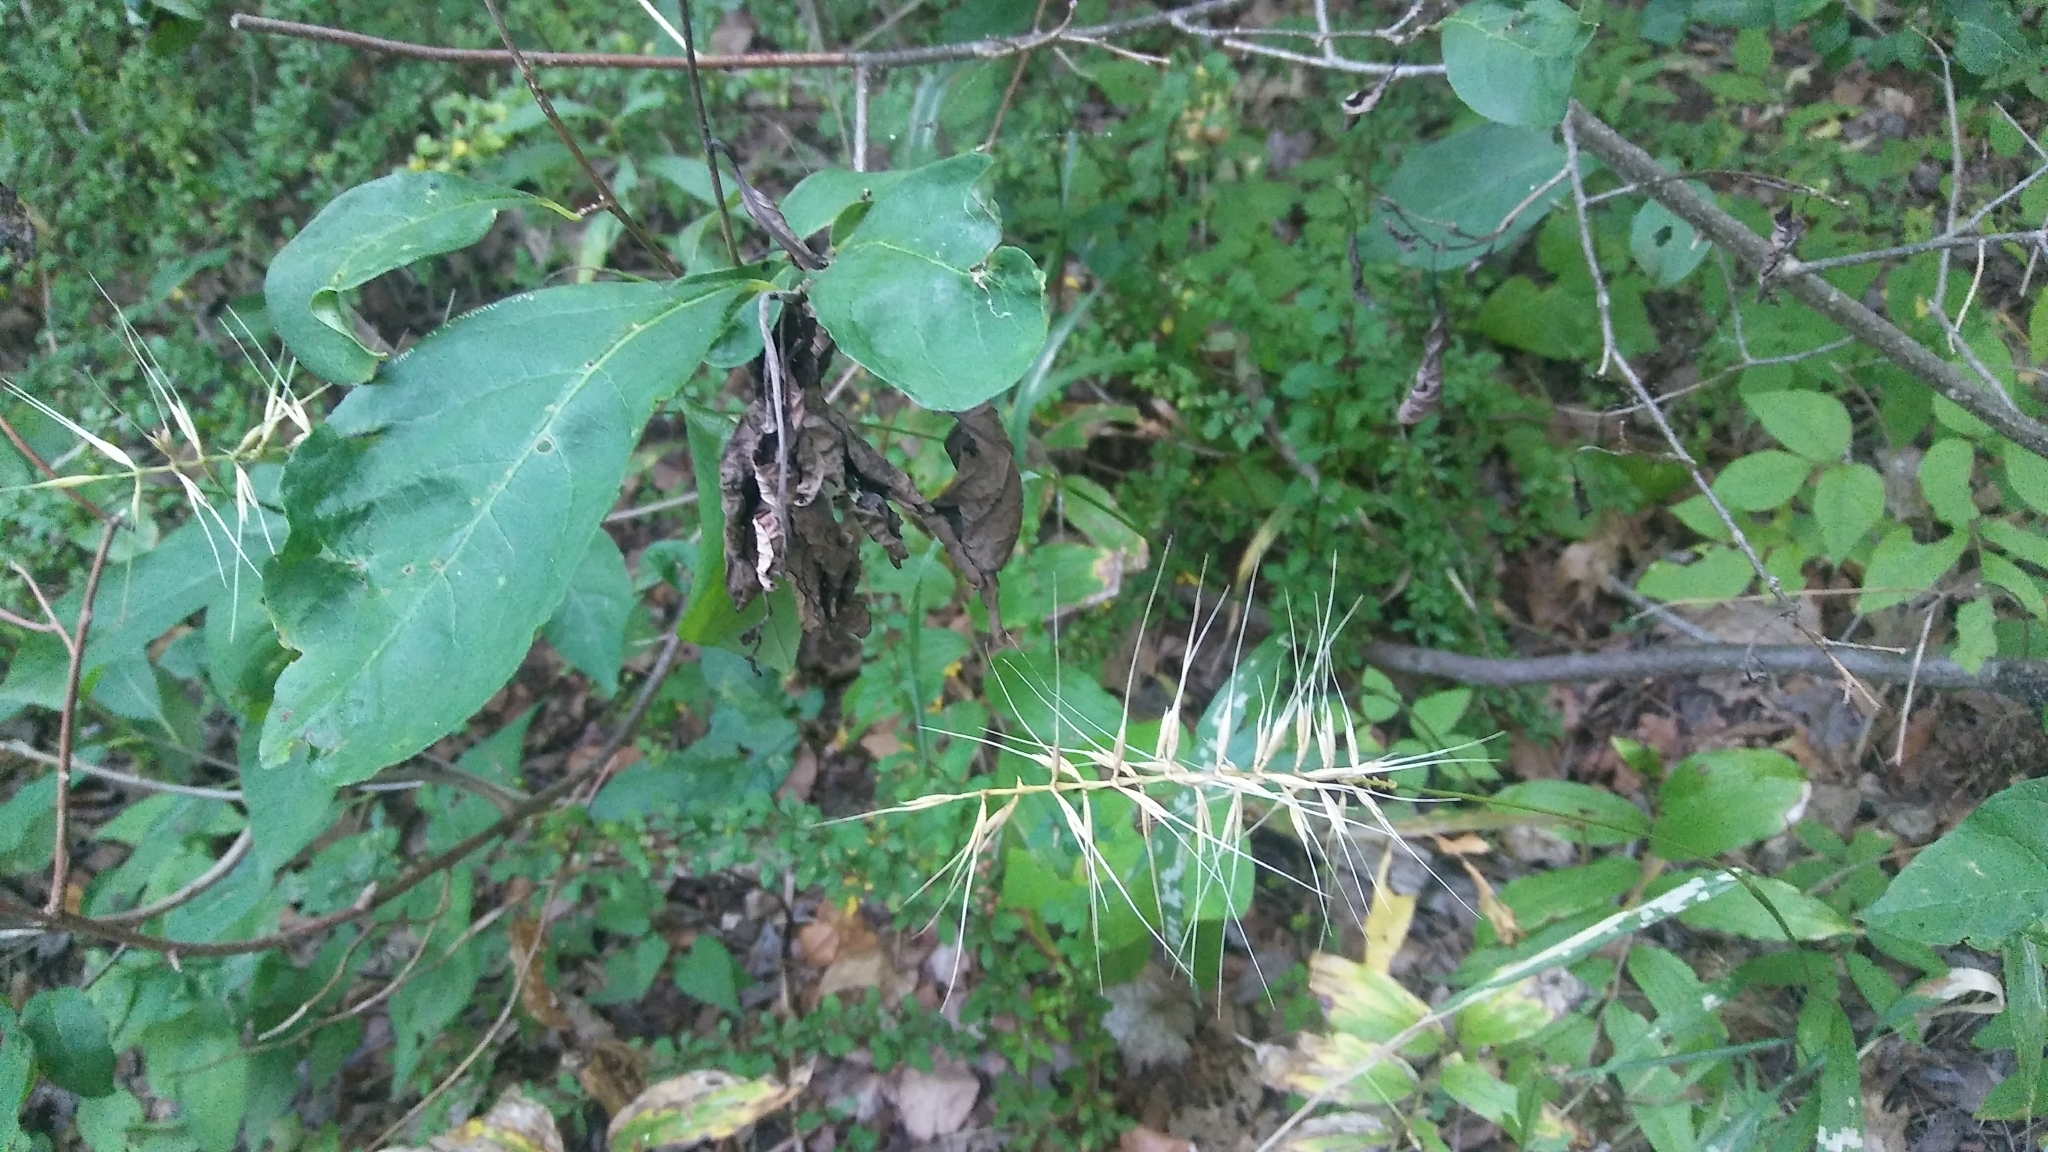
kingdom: Plantae
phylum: Tracheophyta
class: Liliopsida
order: Poales
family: Poaceae
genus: Elymus
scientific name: Elymus hystrix
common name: Bottlebrush grass
